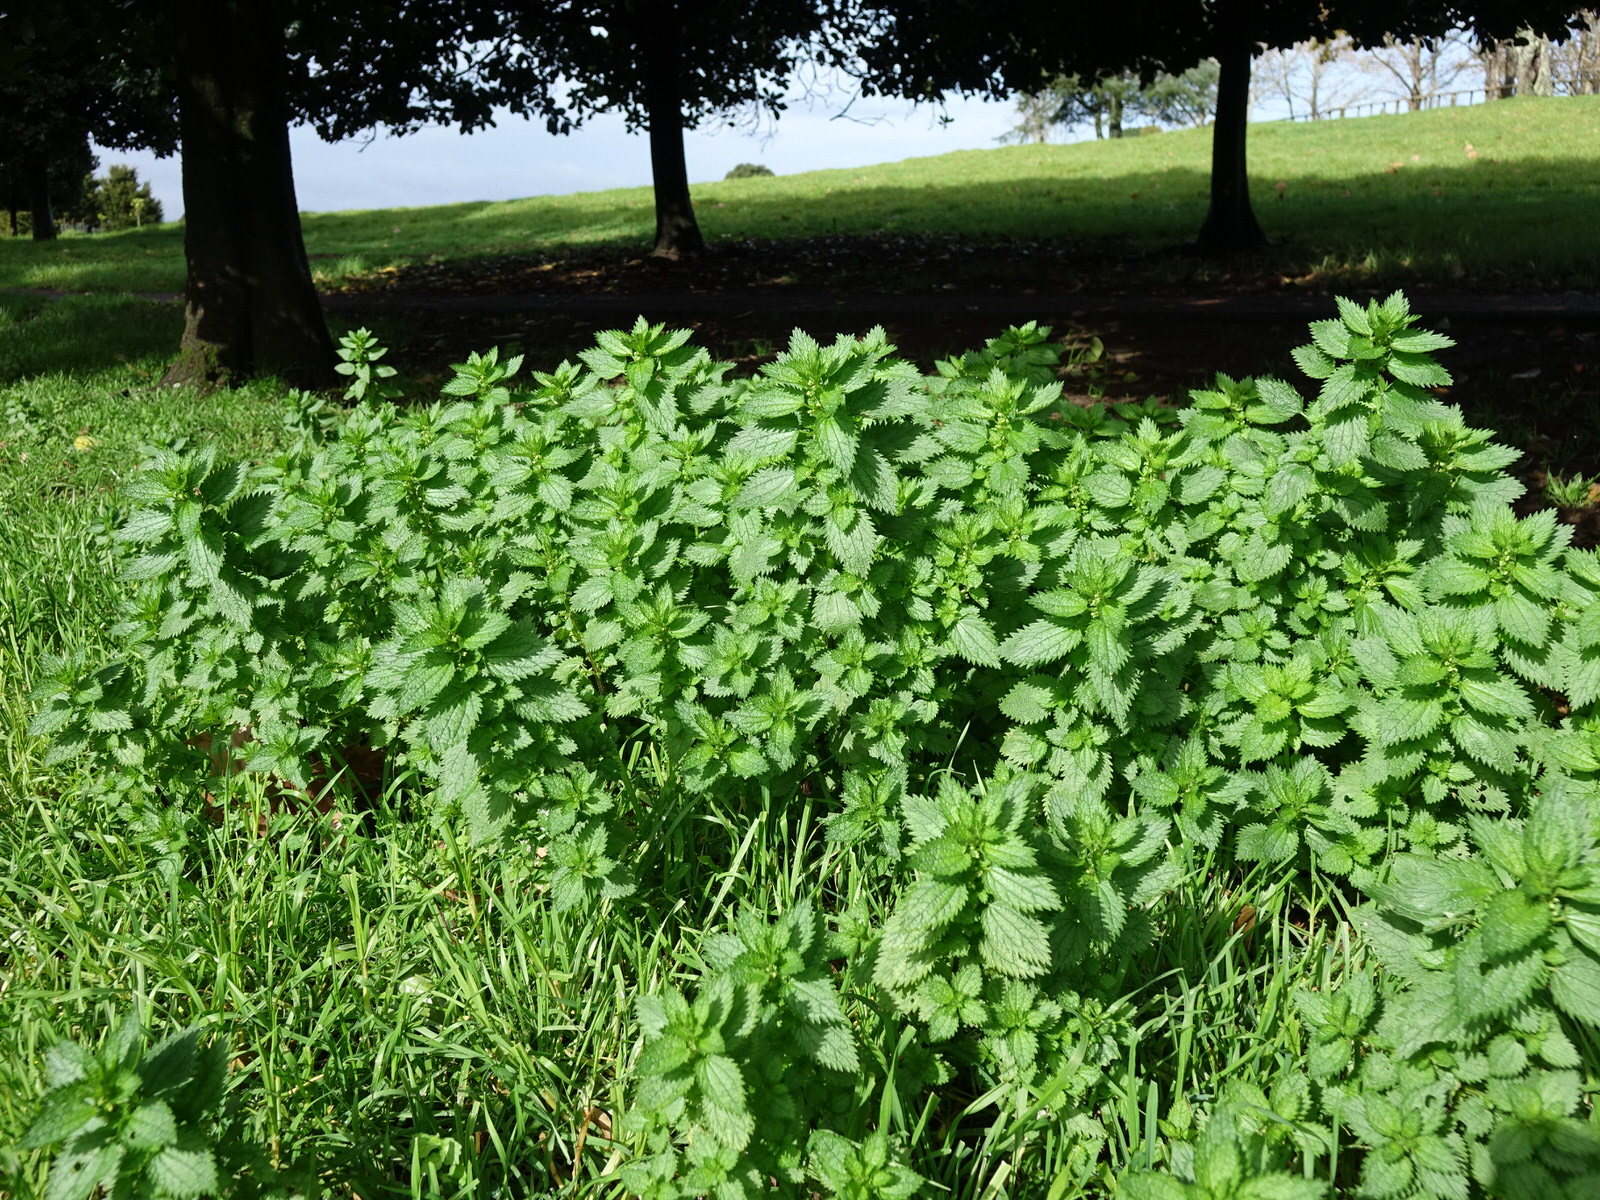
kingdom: Plantae
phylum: Tracheophyta
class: Magnoliopsida
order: Rosales
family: Urticaceae
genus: Urtica
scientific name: Urtica urens
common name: Dwarf nettle
